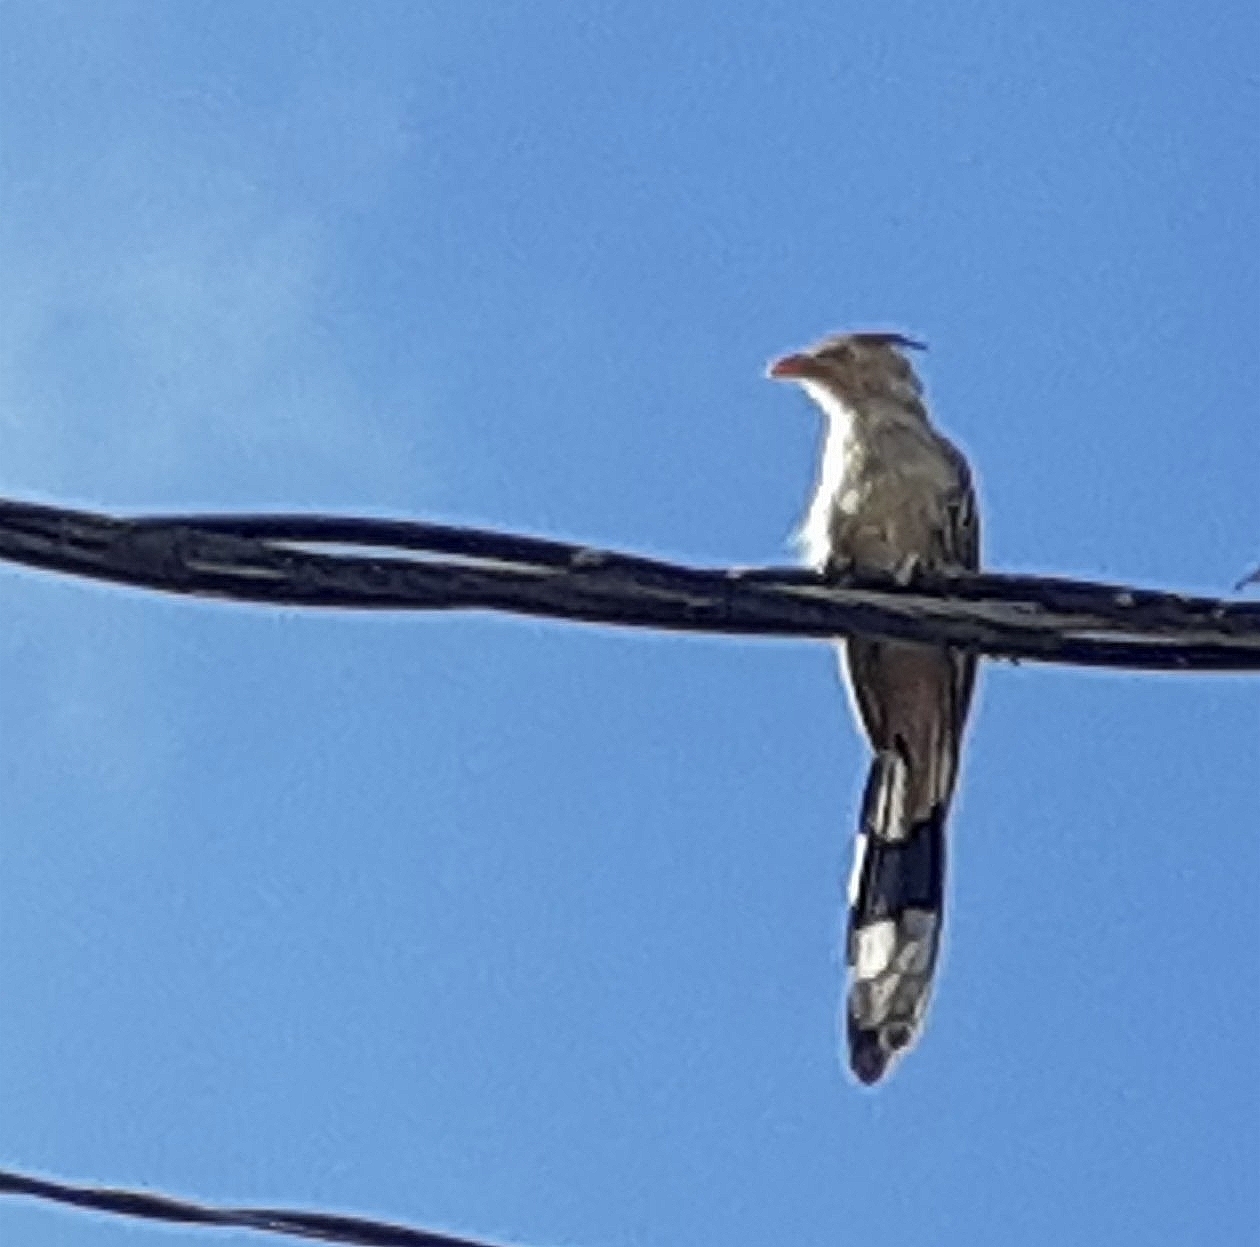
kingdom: Animalia
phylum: Chordata
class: Aves
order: Cuculiformes
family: Cuculidae
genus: Guira
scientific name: Guira guira
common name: Guira cuckoo
